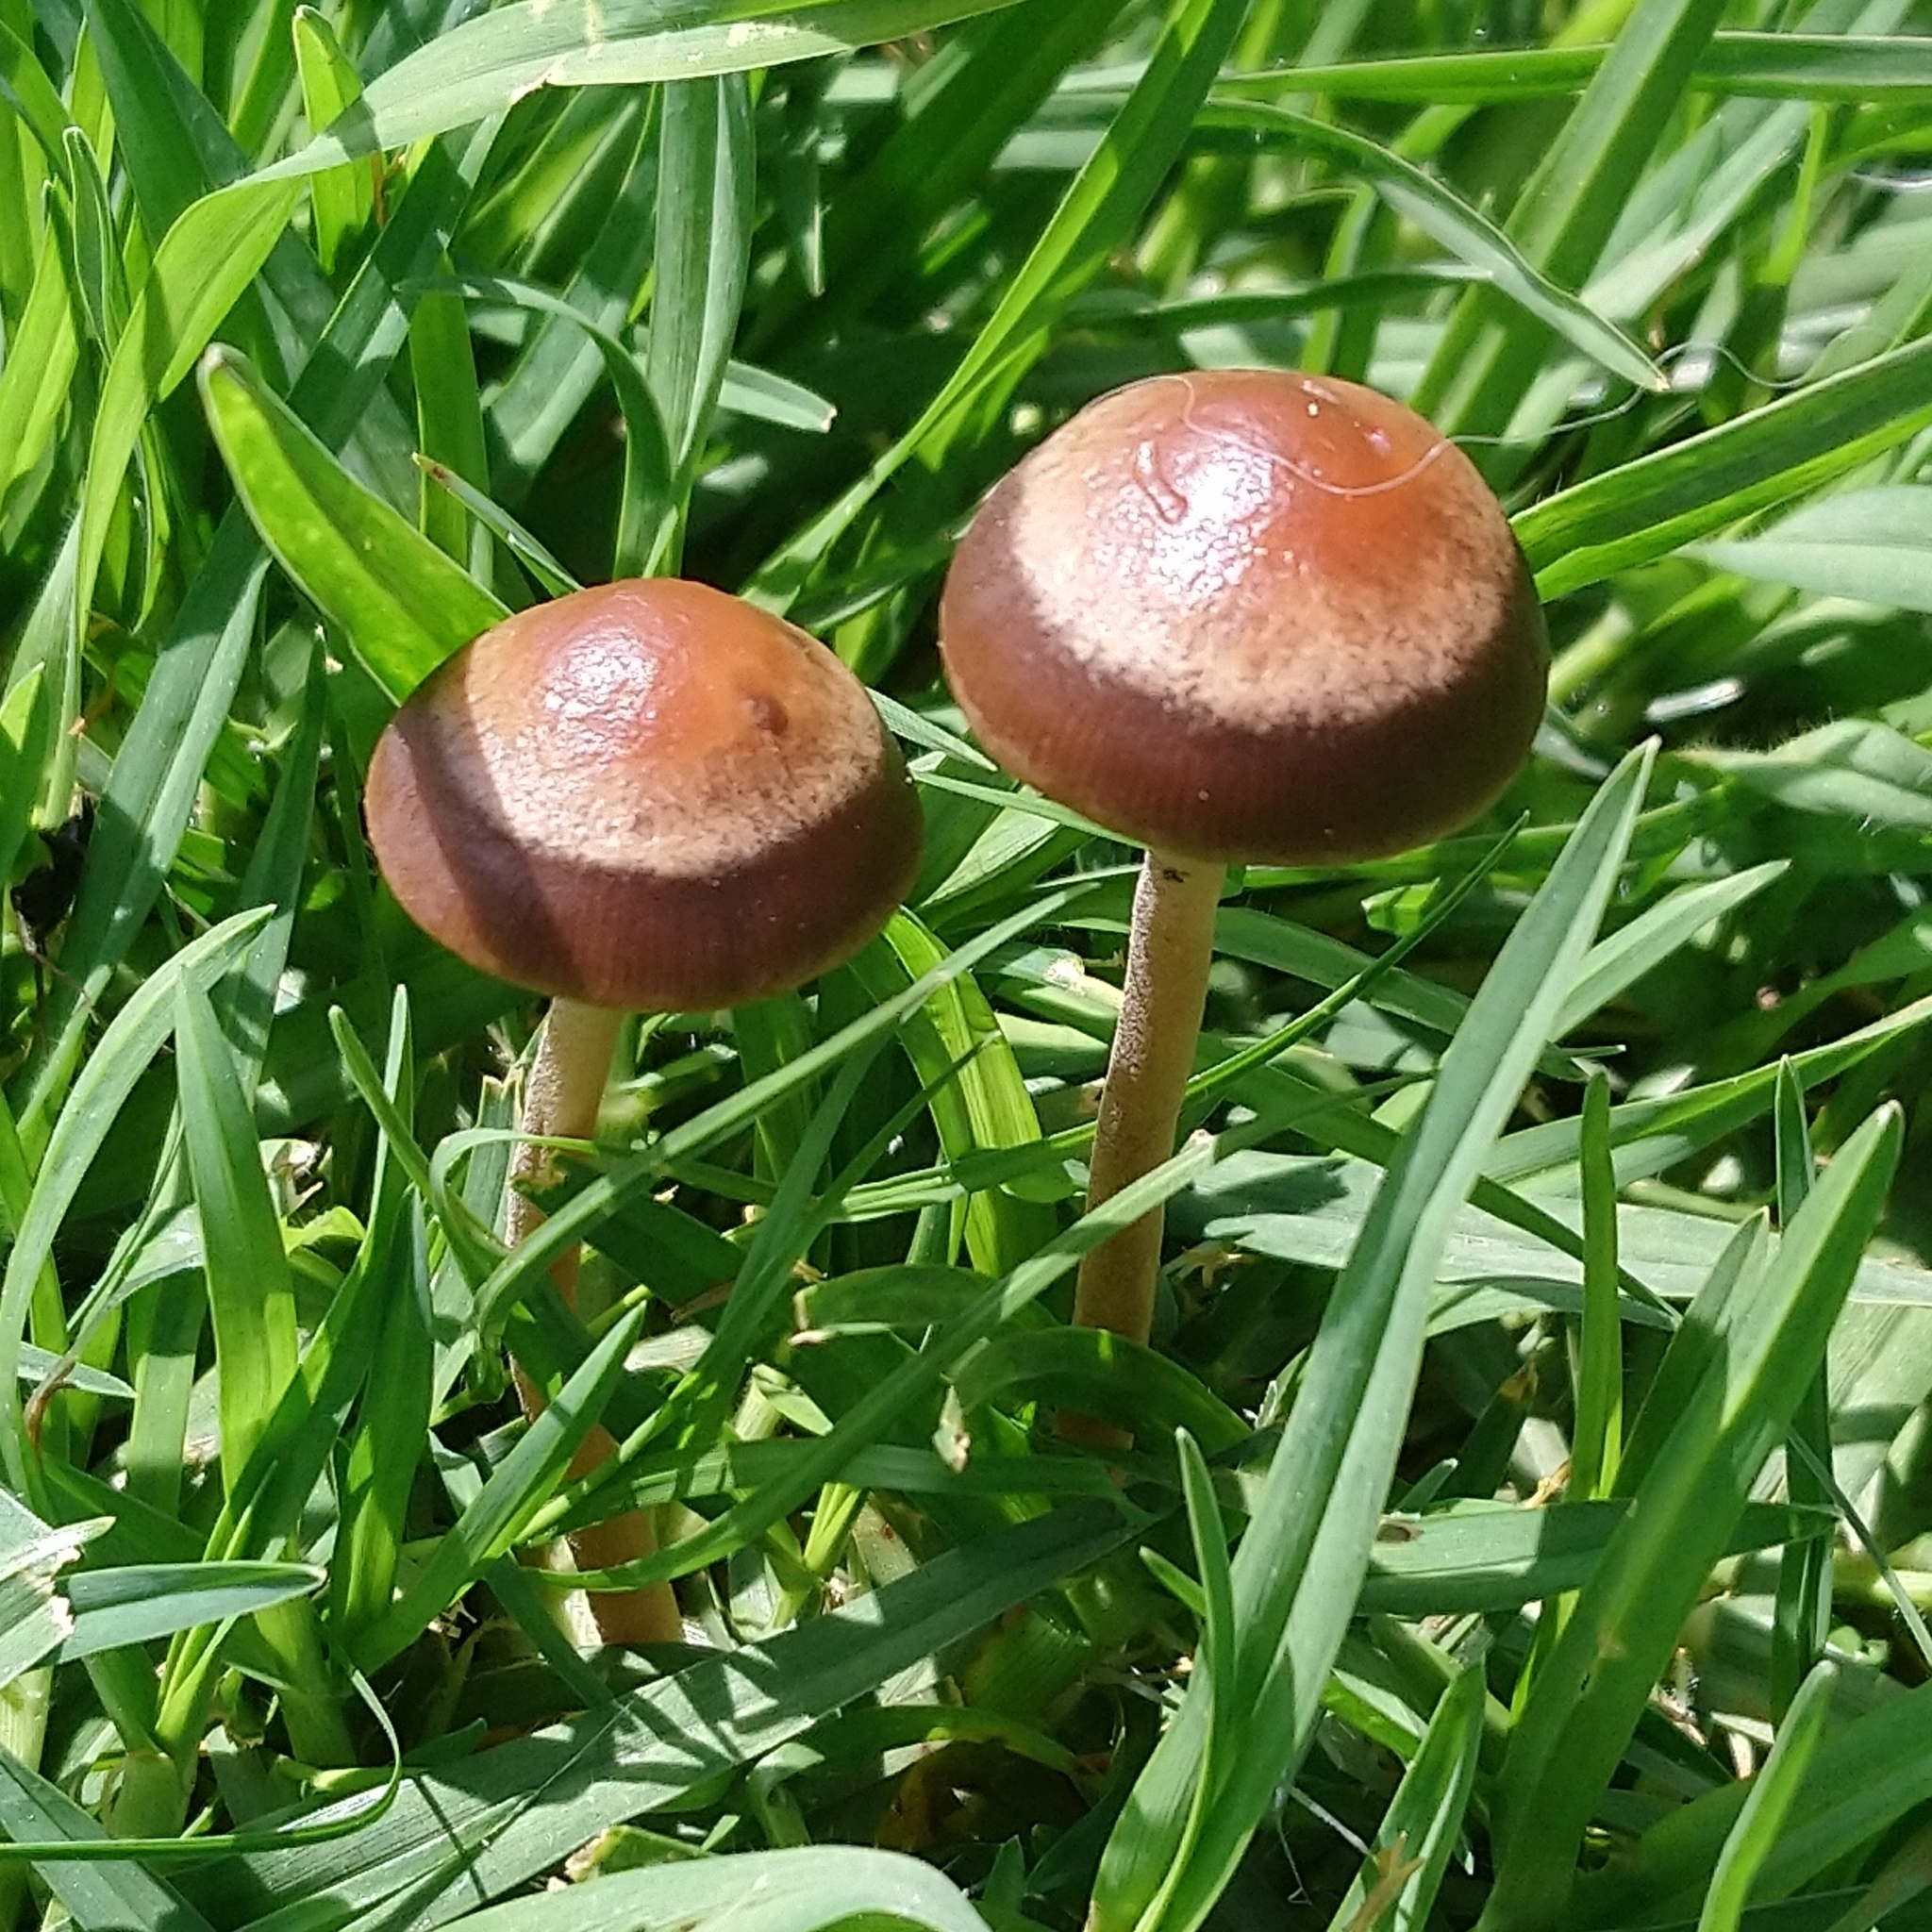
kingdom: Fungi
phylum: Basidiomycota
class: Agaricomycetes
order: Agaricales
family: Bolbitiaceae
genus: Panaeolus
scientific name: Panaeolus cinctulus
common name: Banded mottlegill
